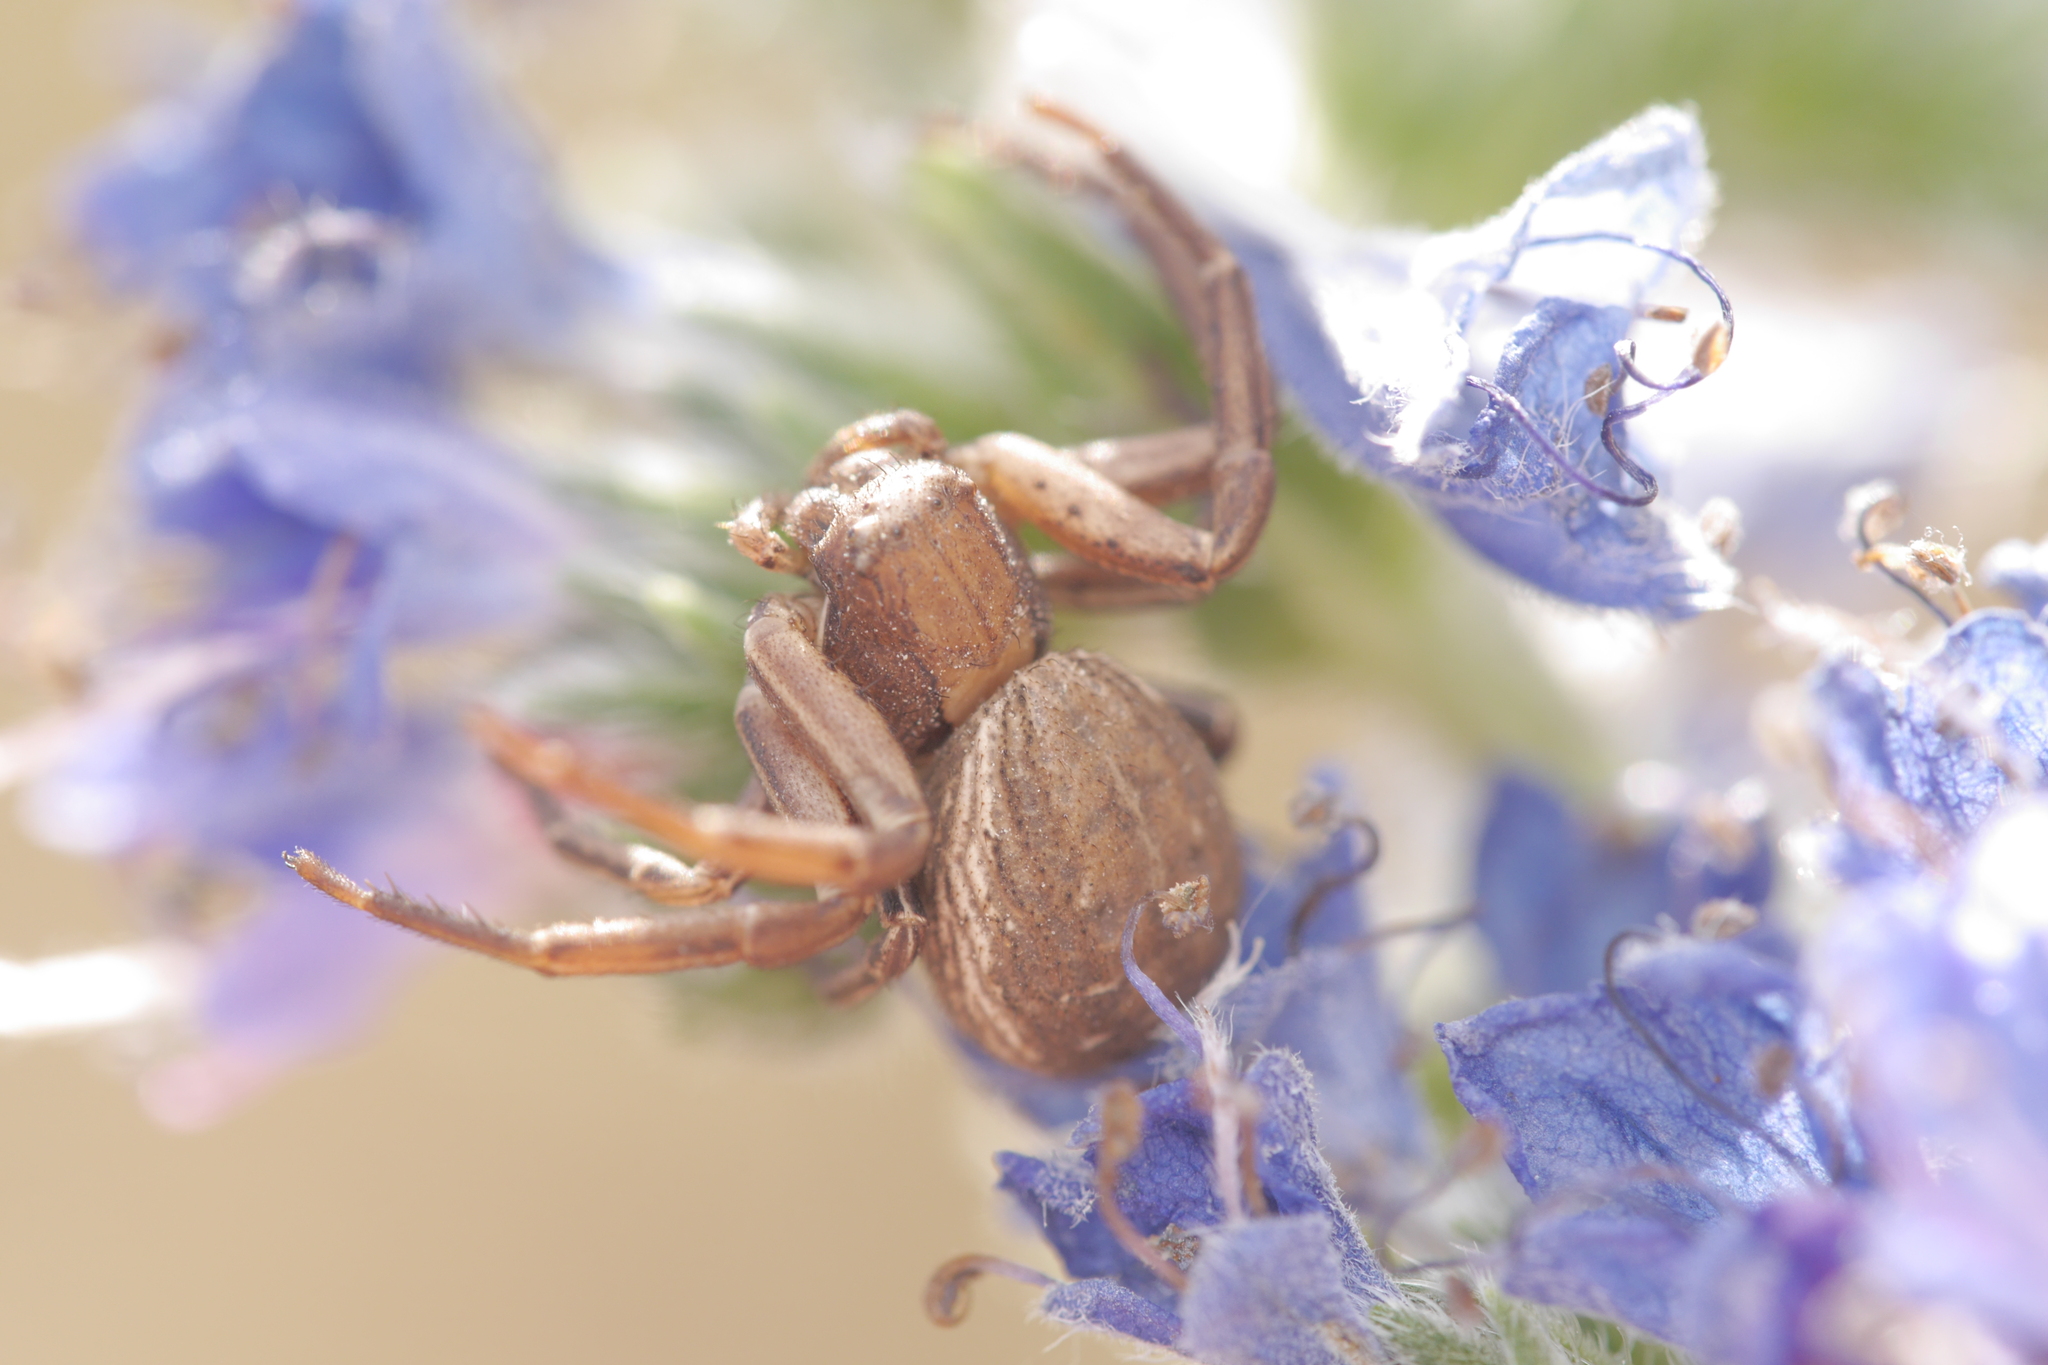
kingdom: Animalia
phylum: Arthropoda
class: Arachnida
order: Araneae
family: Thomisidae
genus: Spiracme
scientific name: Spiracme striatipes
